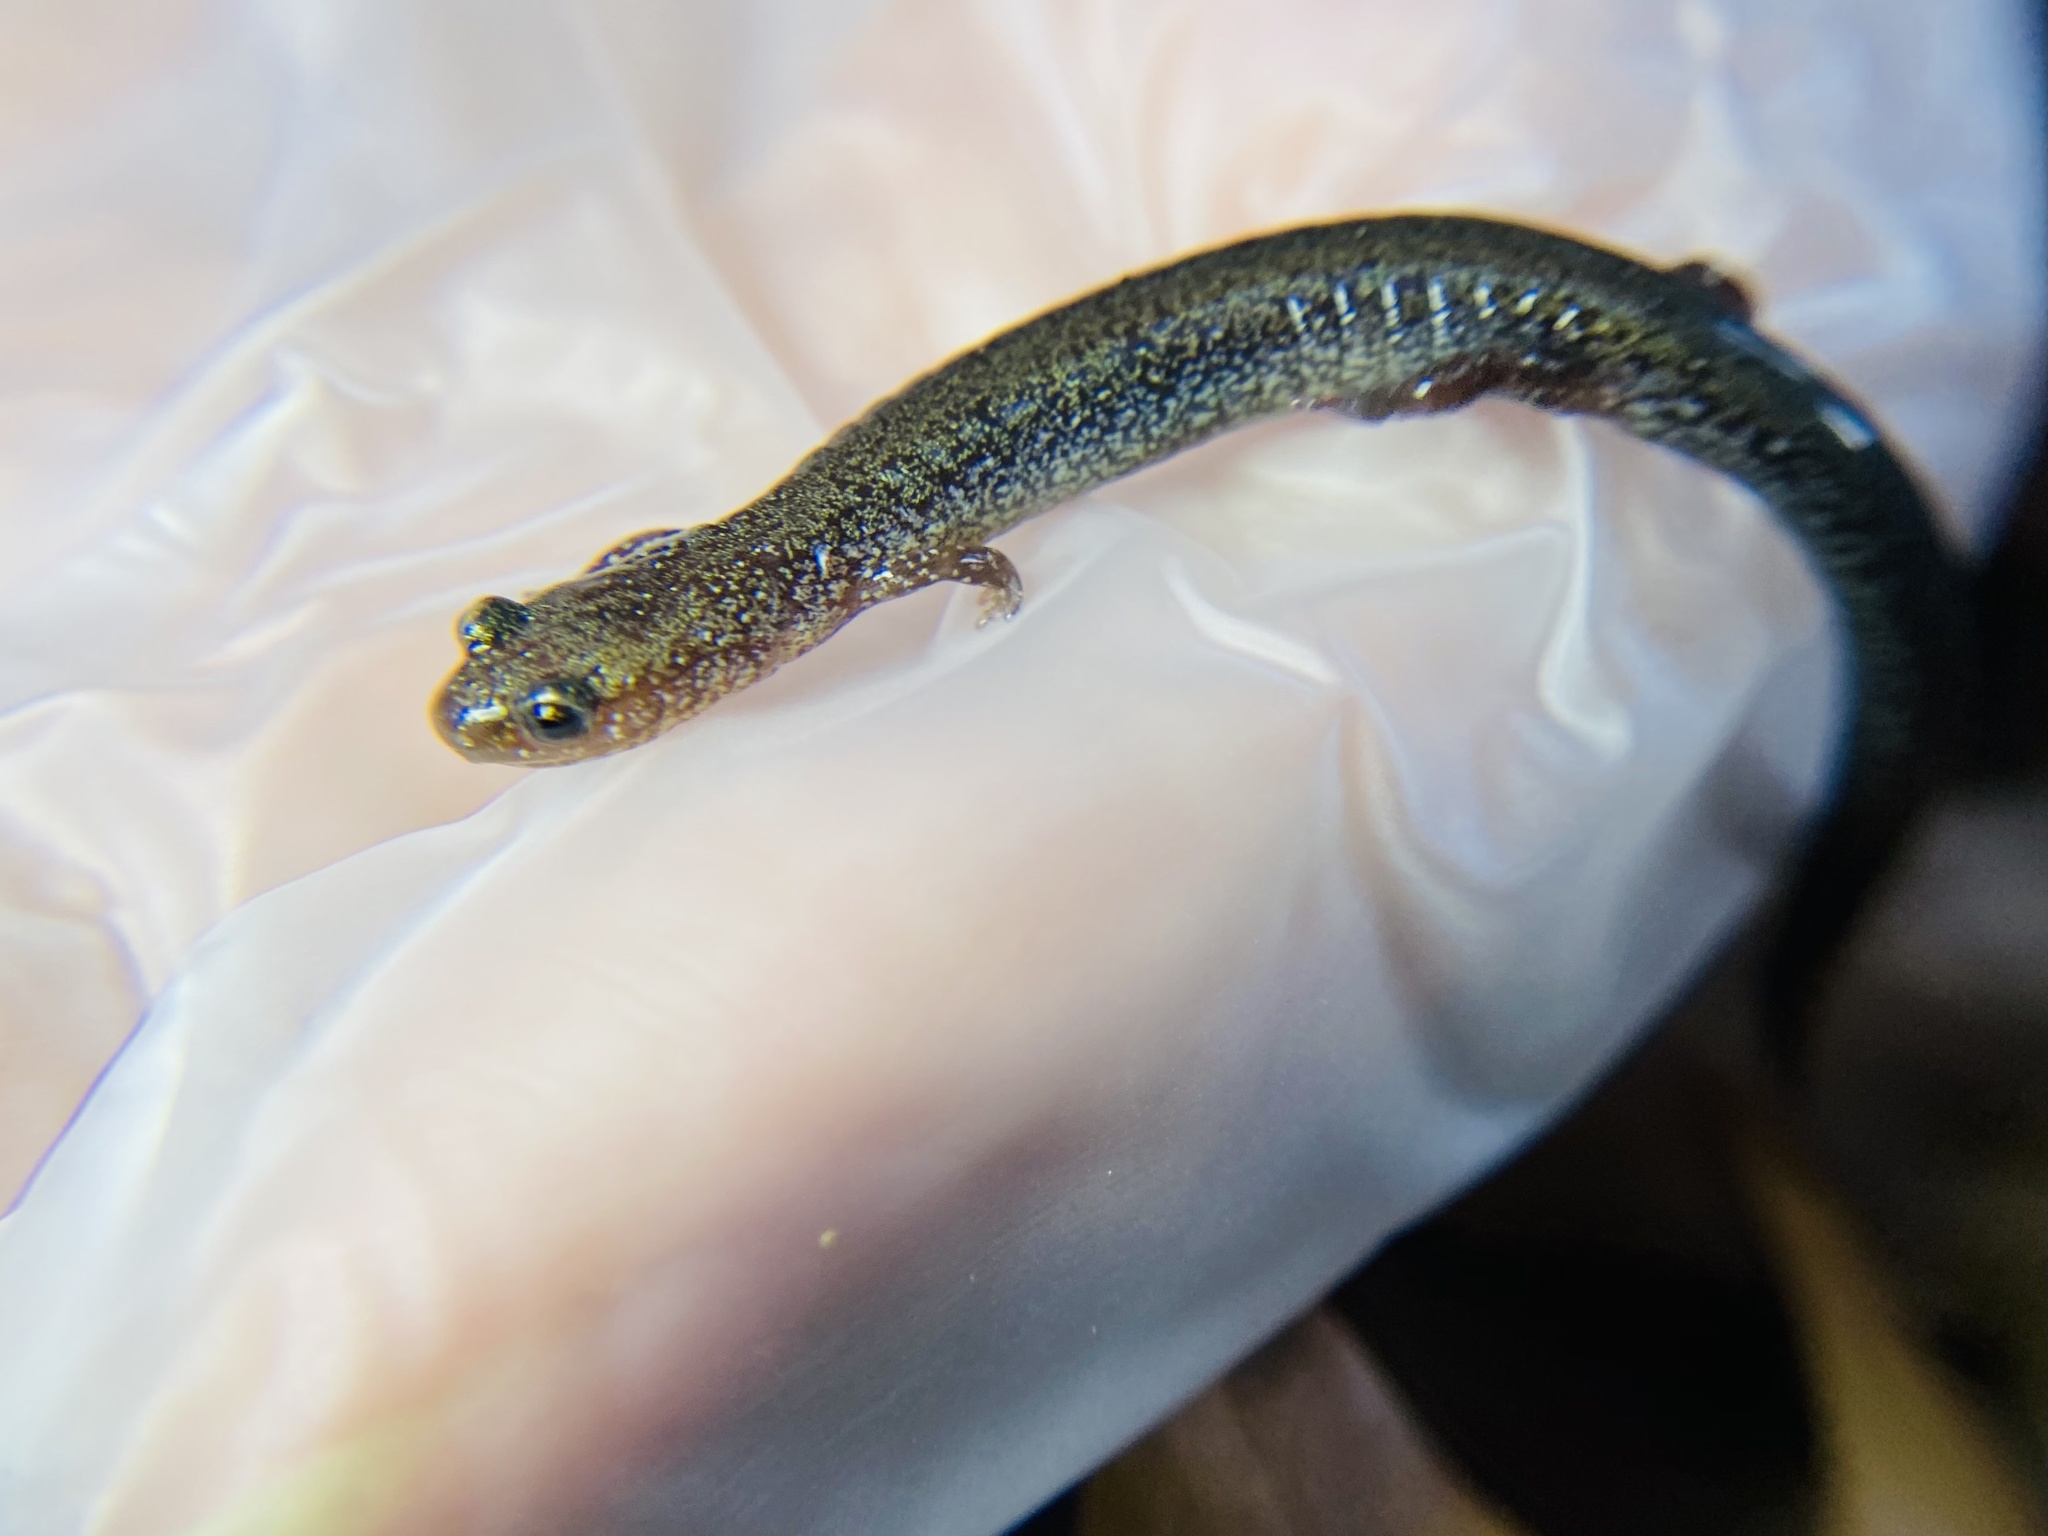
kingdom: Animalia
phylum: Chordata
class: Amphibia
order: Caudata
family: Plethodontidae
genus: Plethodon
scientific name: Plethodon cinereus
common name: Redback salamander
